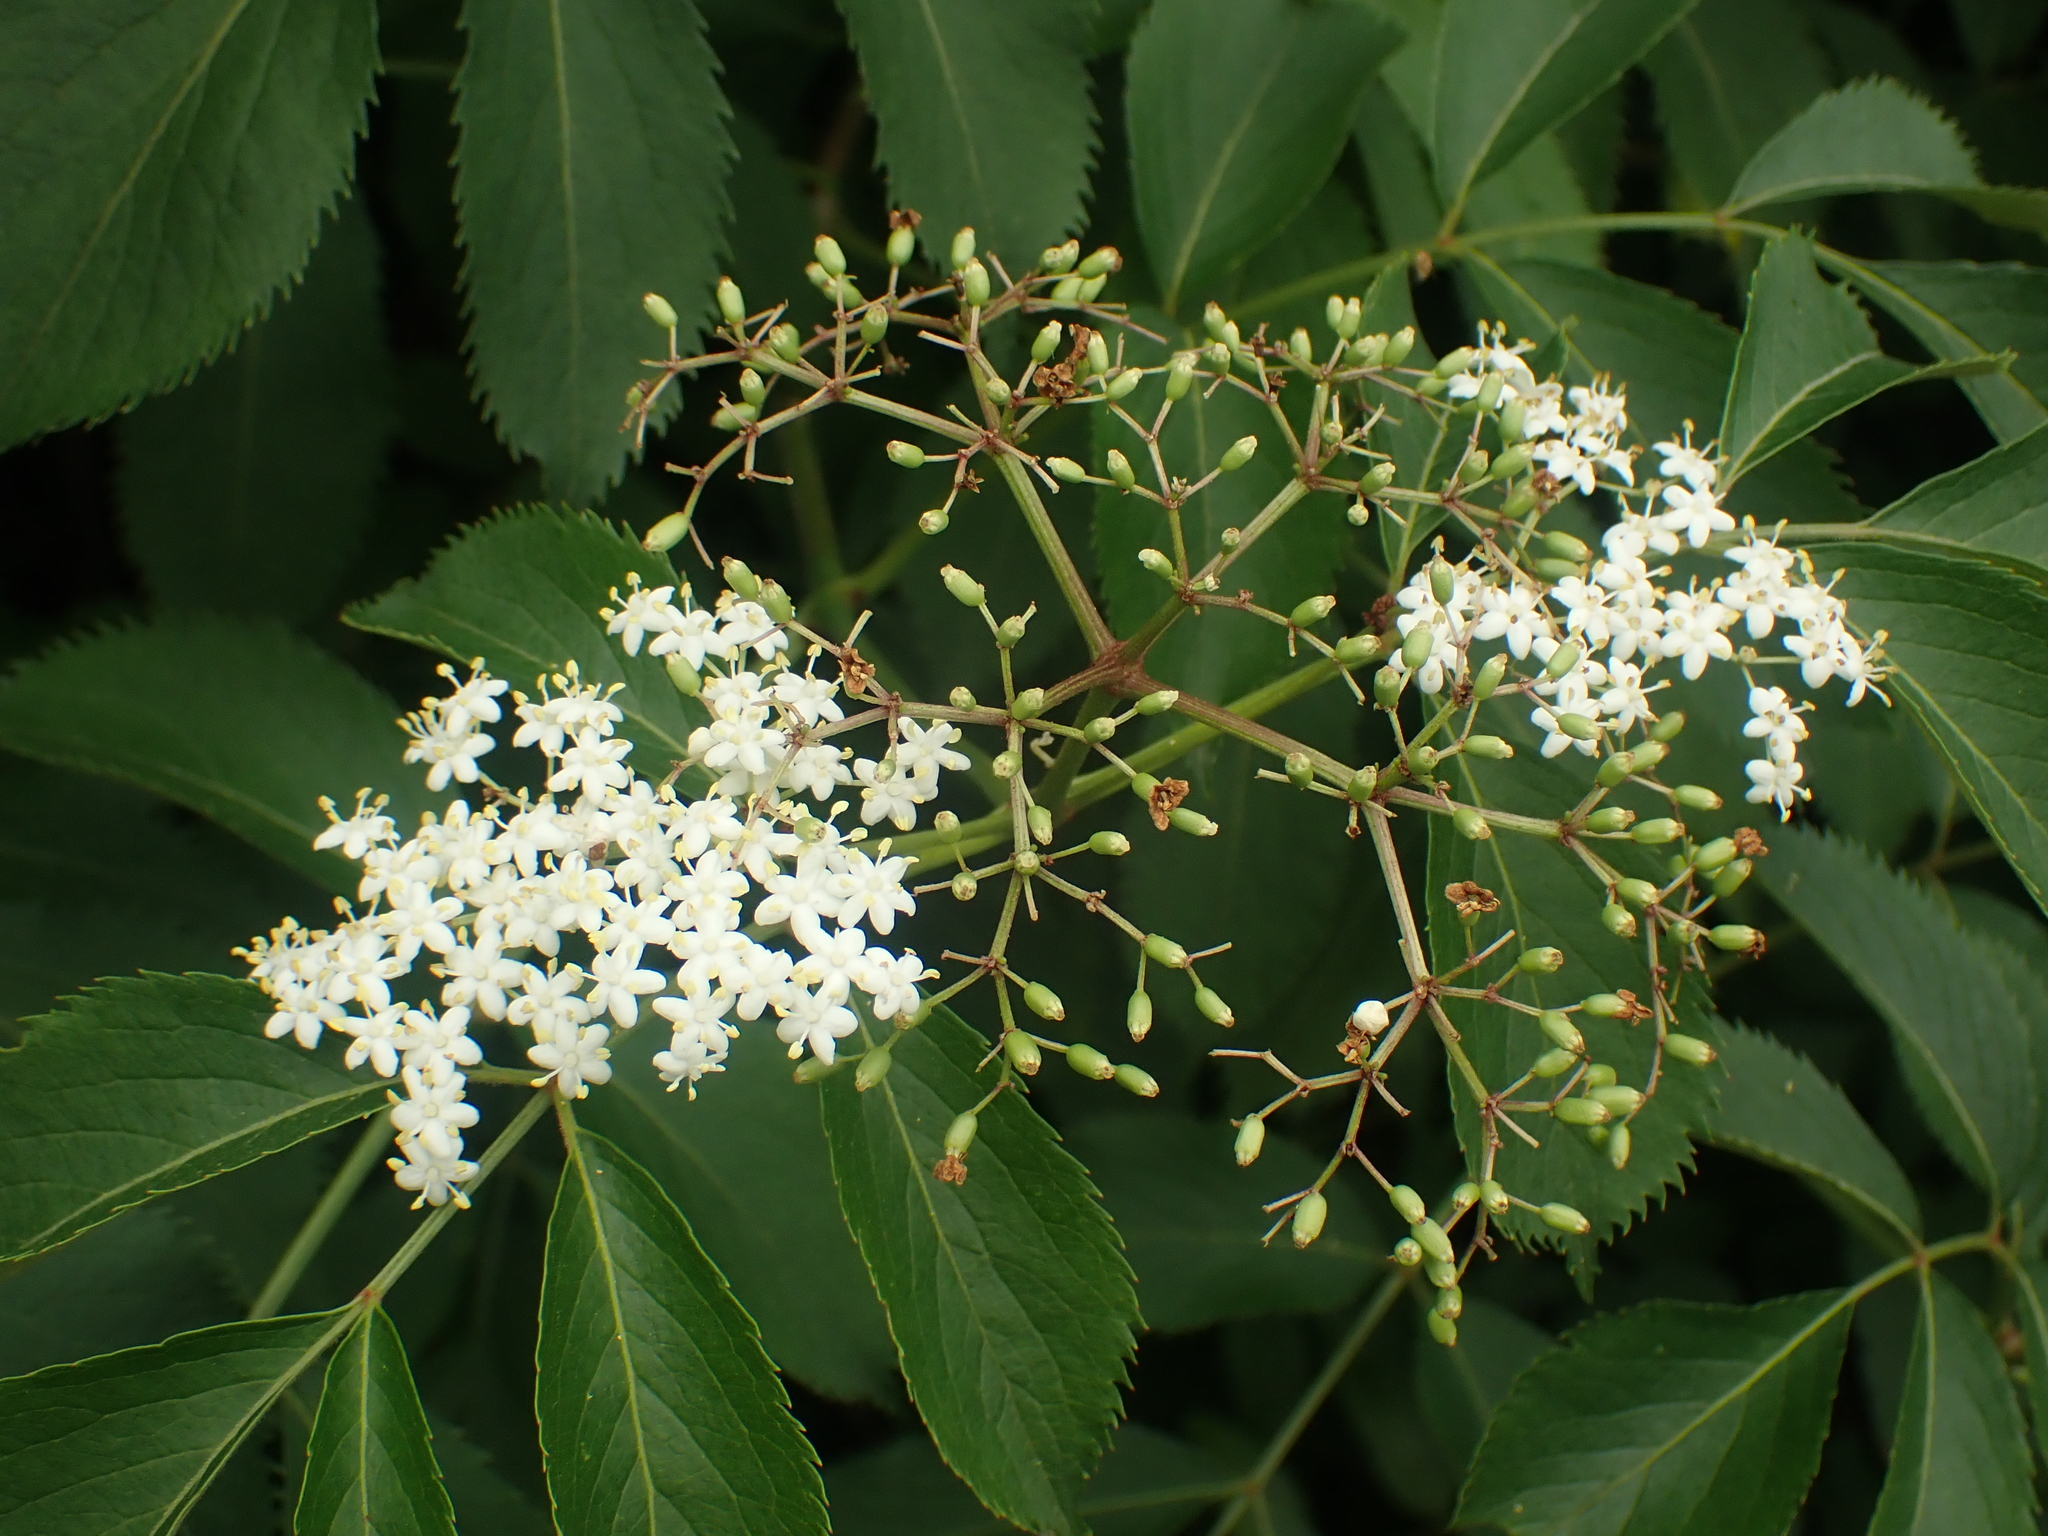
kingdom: Plantae
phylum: Tracheophyta
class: Magnoliopsida
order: Dipsacales
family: Viburnaceae
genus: Sambucus
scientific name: Sambucus canadensis
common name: American elder
